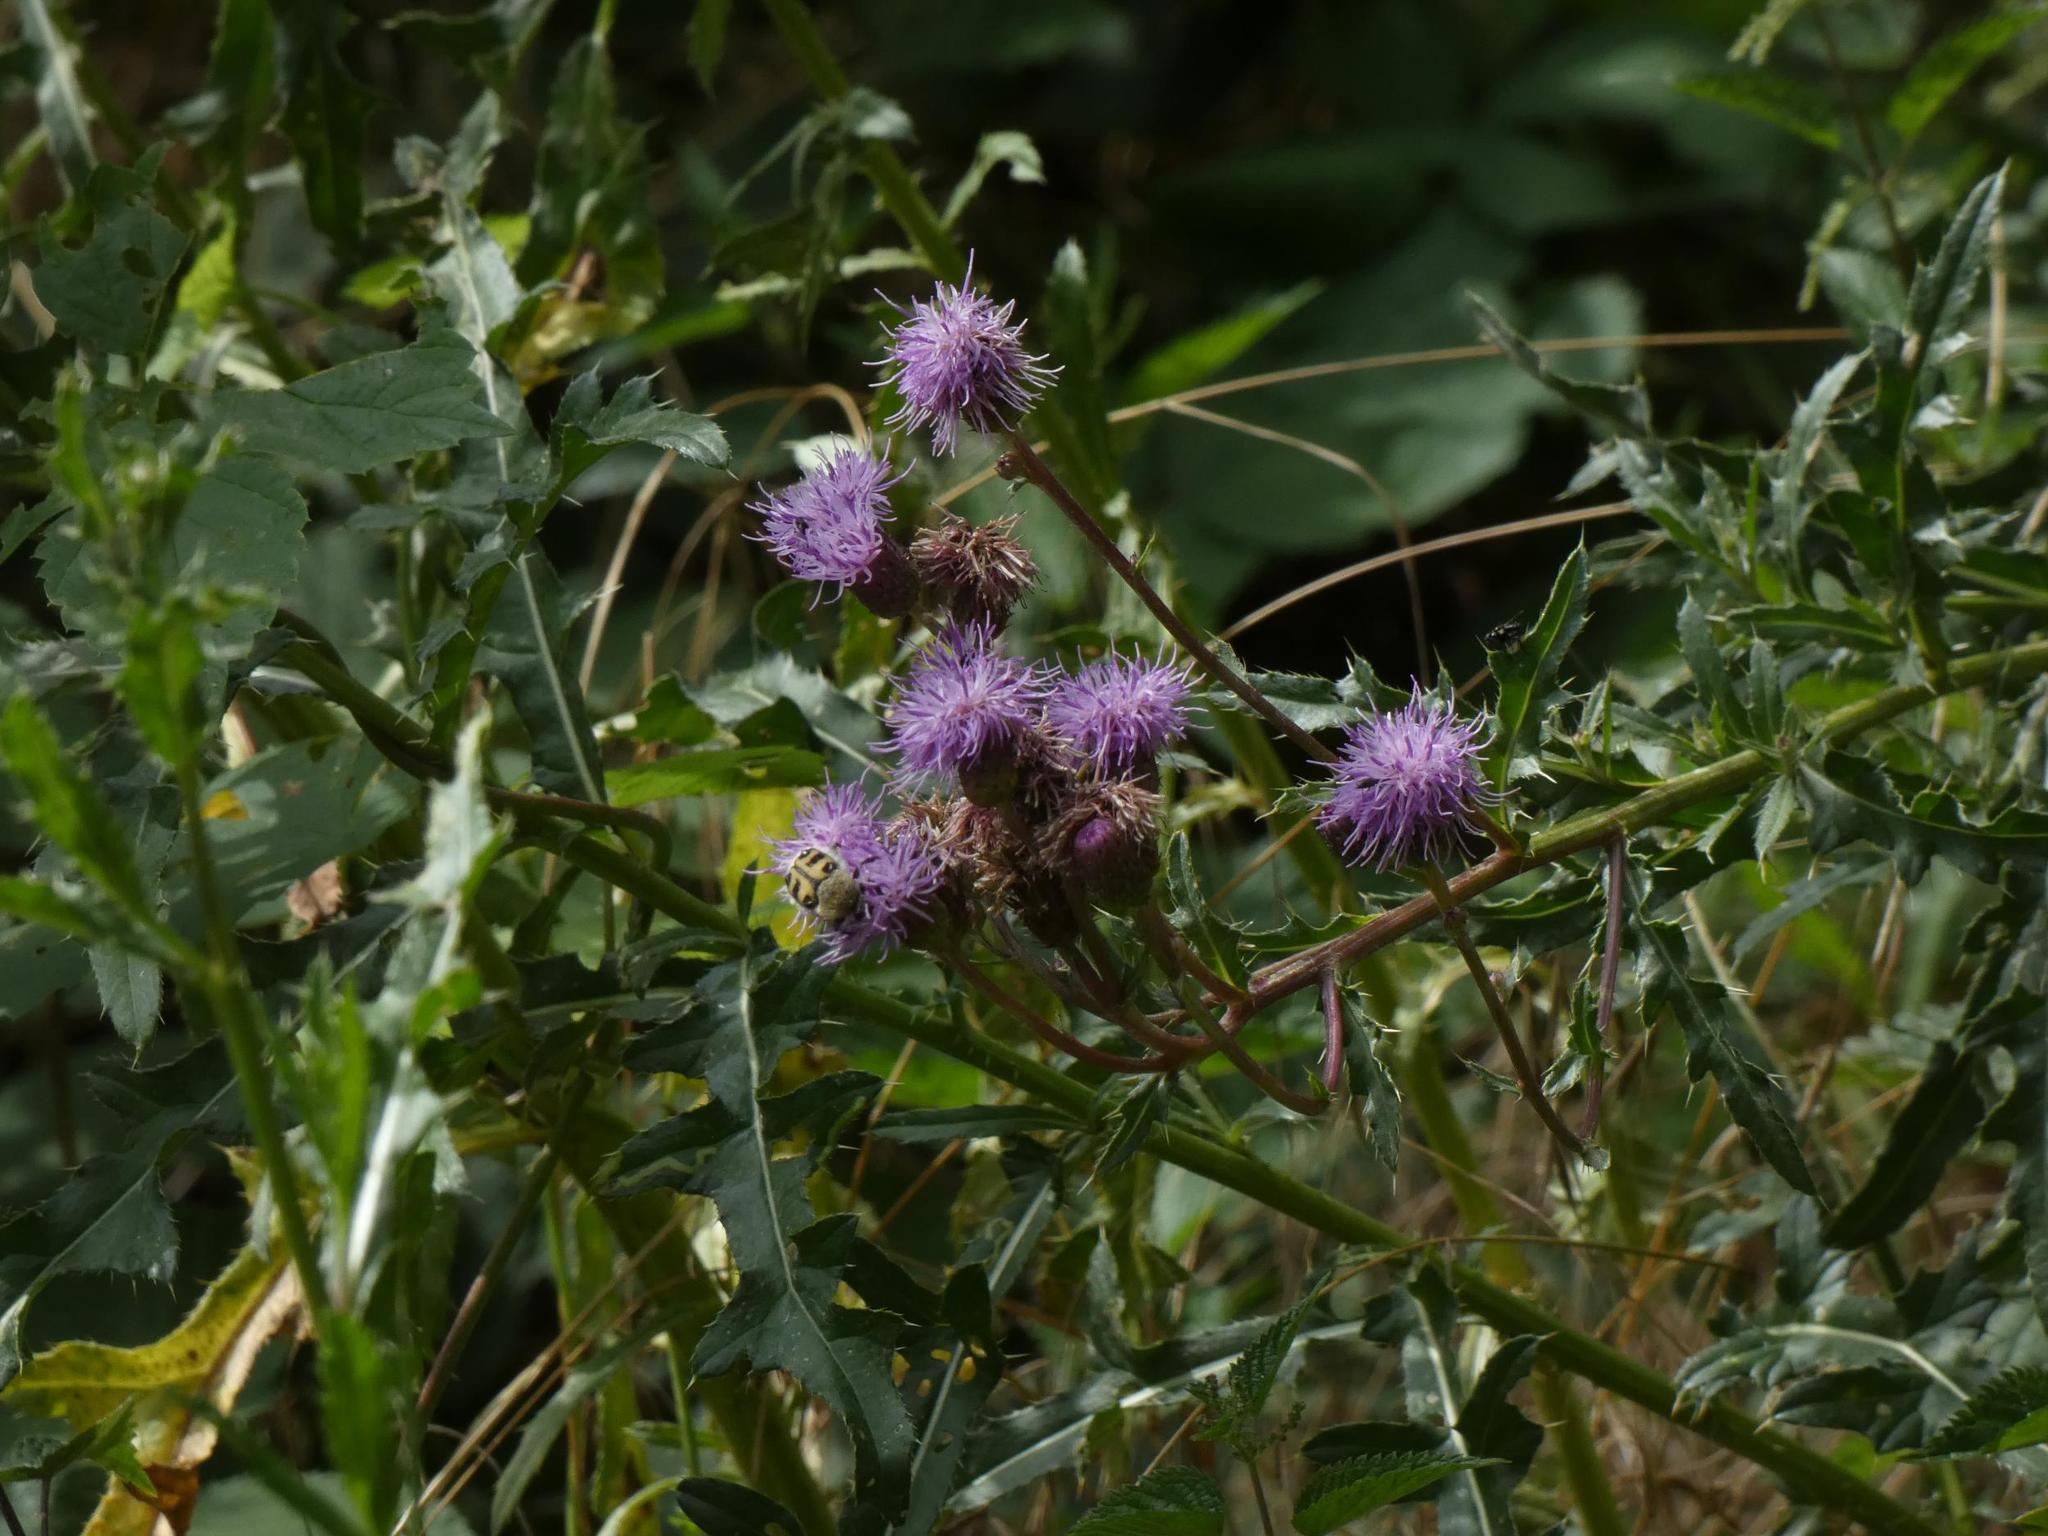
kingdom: Plantae
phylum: Tracheophyta
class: Magnoliopsida
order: Asterales
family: Asteraceae
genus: Cirsium
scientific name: Cirsium arvense
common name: Creeping thistle
